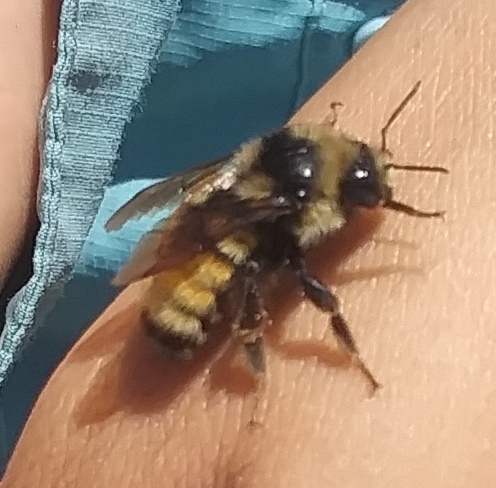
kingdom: Animalia
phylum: Arthropoda
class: Insecta
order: Hymenoptera
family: Apidae
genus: Bombus
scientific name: Bombus bifarius
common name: Two form bumble bee
